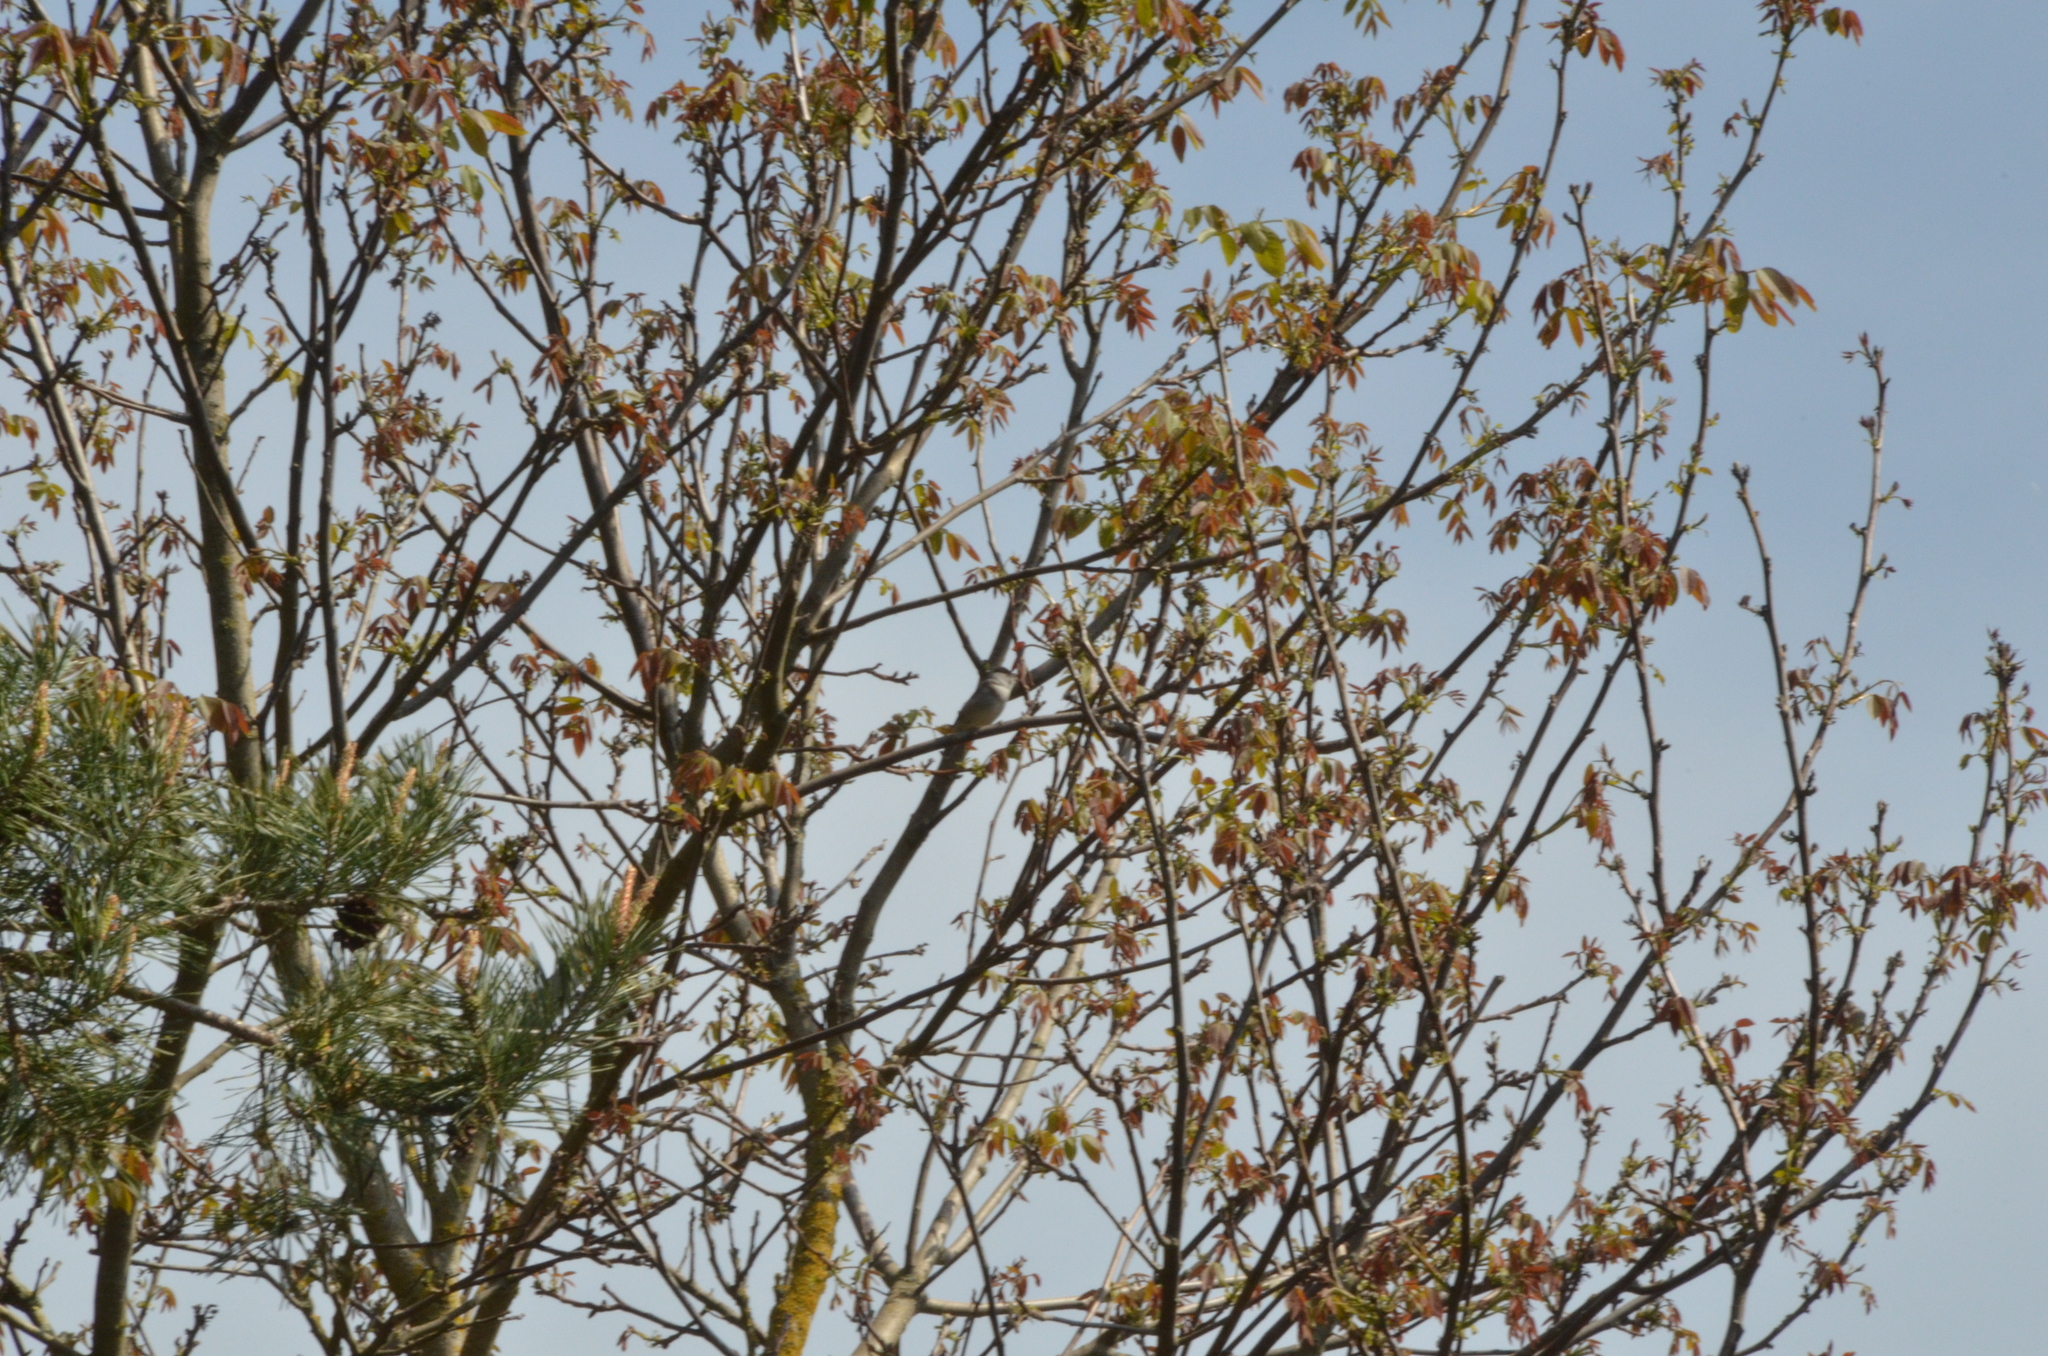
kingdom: Animalia
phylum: Chordata
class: Aves
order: Passeriformes
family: Sylviidae
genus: Sylvia
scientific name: Sylvia atricapilla
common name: Eurasian blackcap
